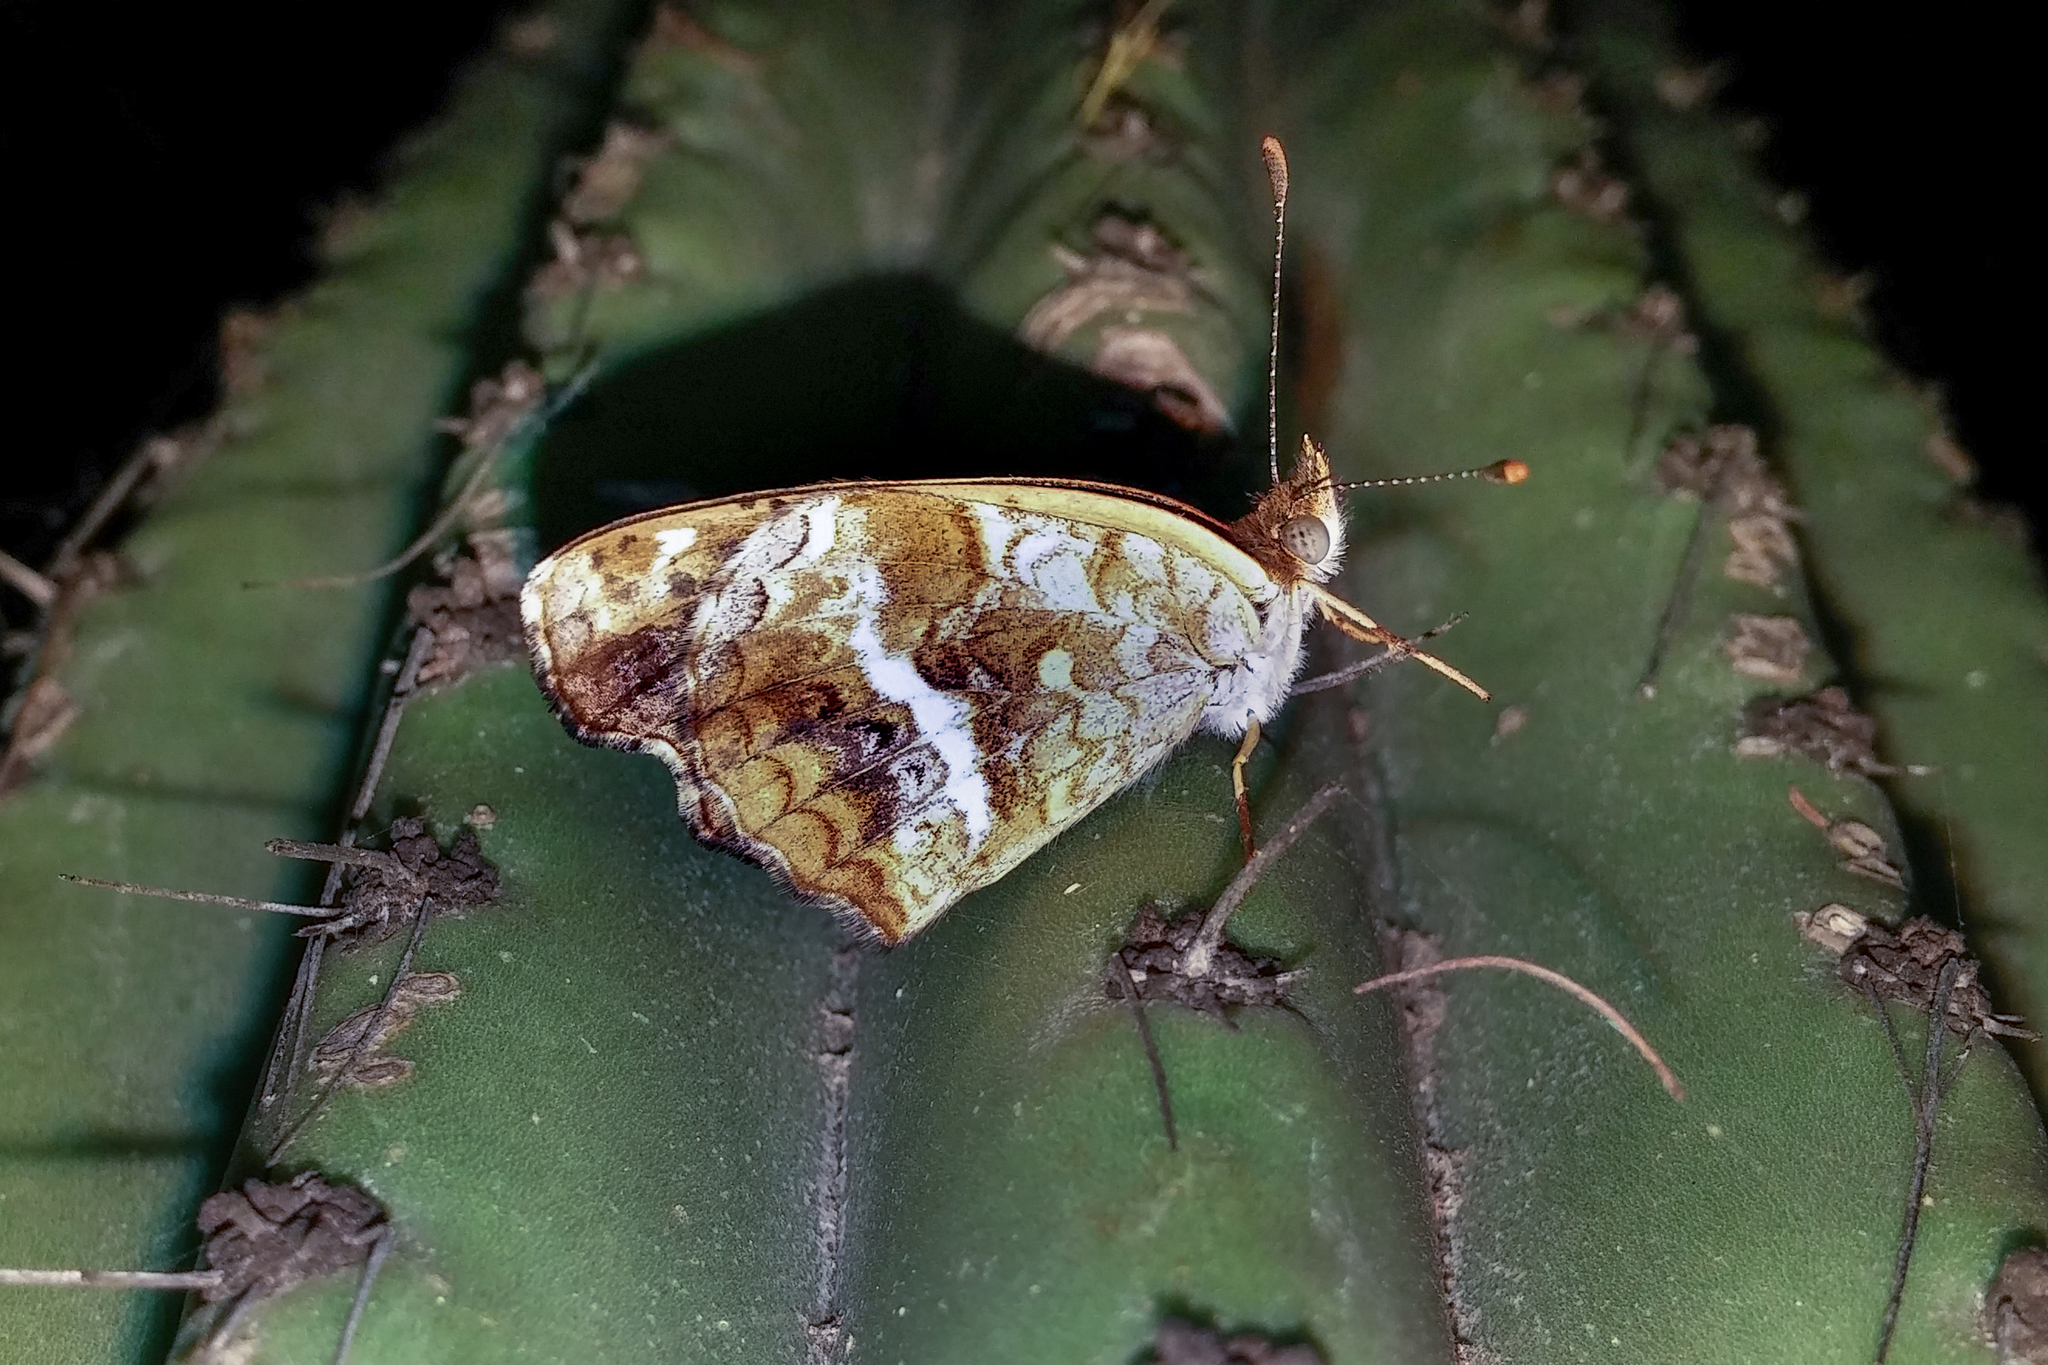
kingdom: Animalia
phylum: Arthropoda
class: Insecta
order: Lepidoptera
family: Nymphalidae
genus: Anthanassa
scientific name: Anthanassa texana
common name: Texan crescent
